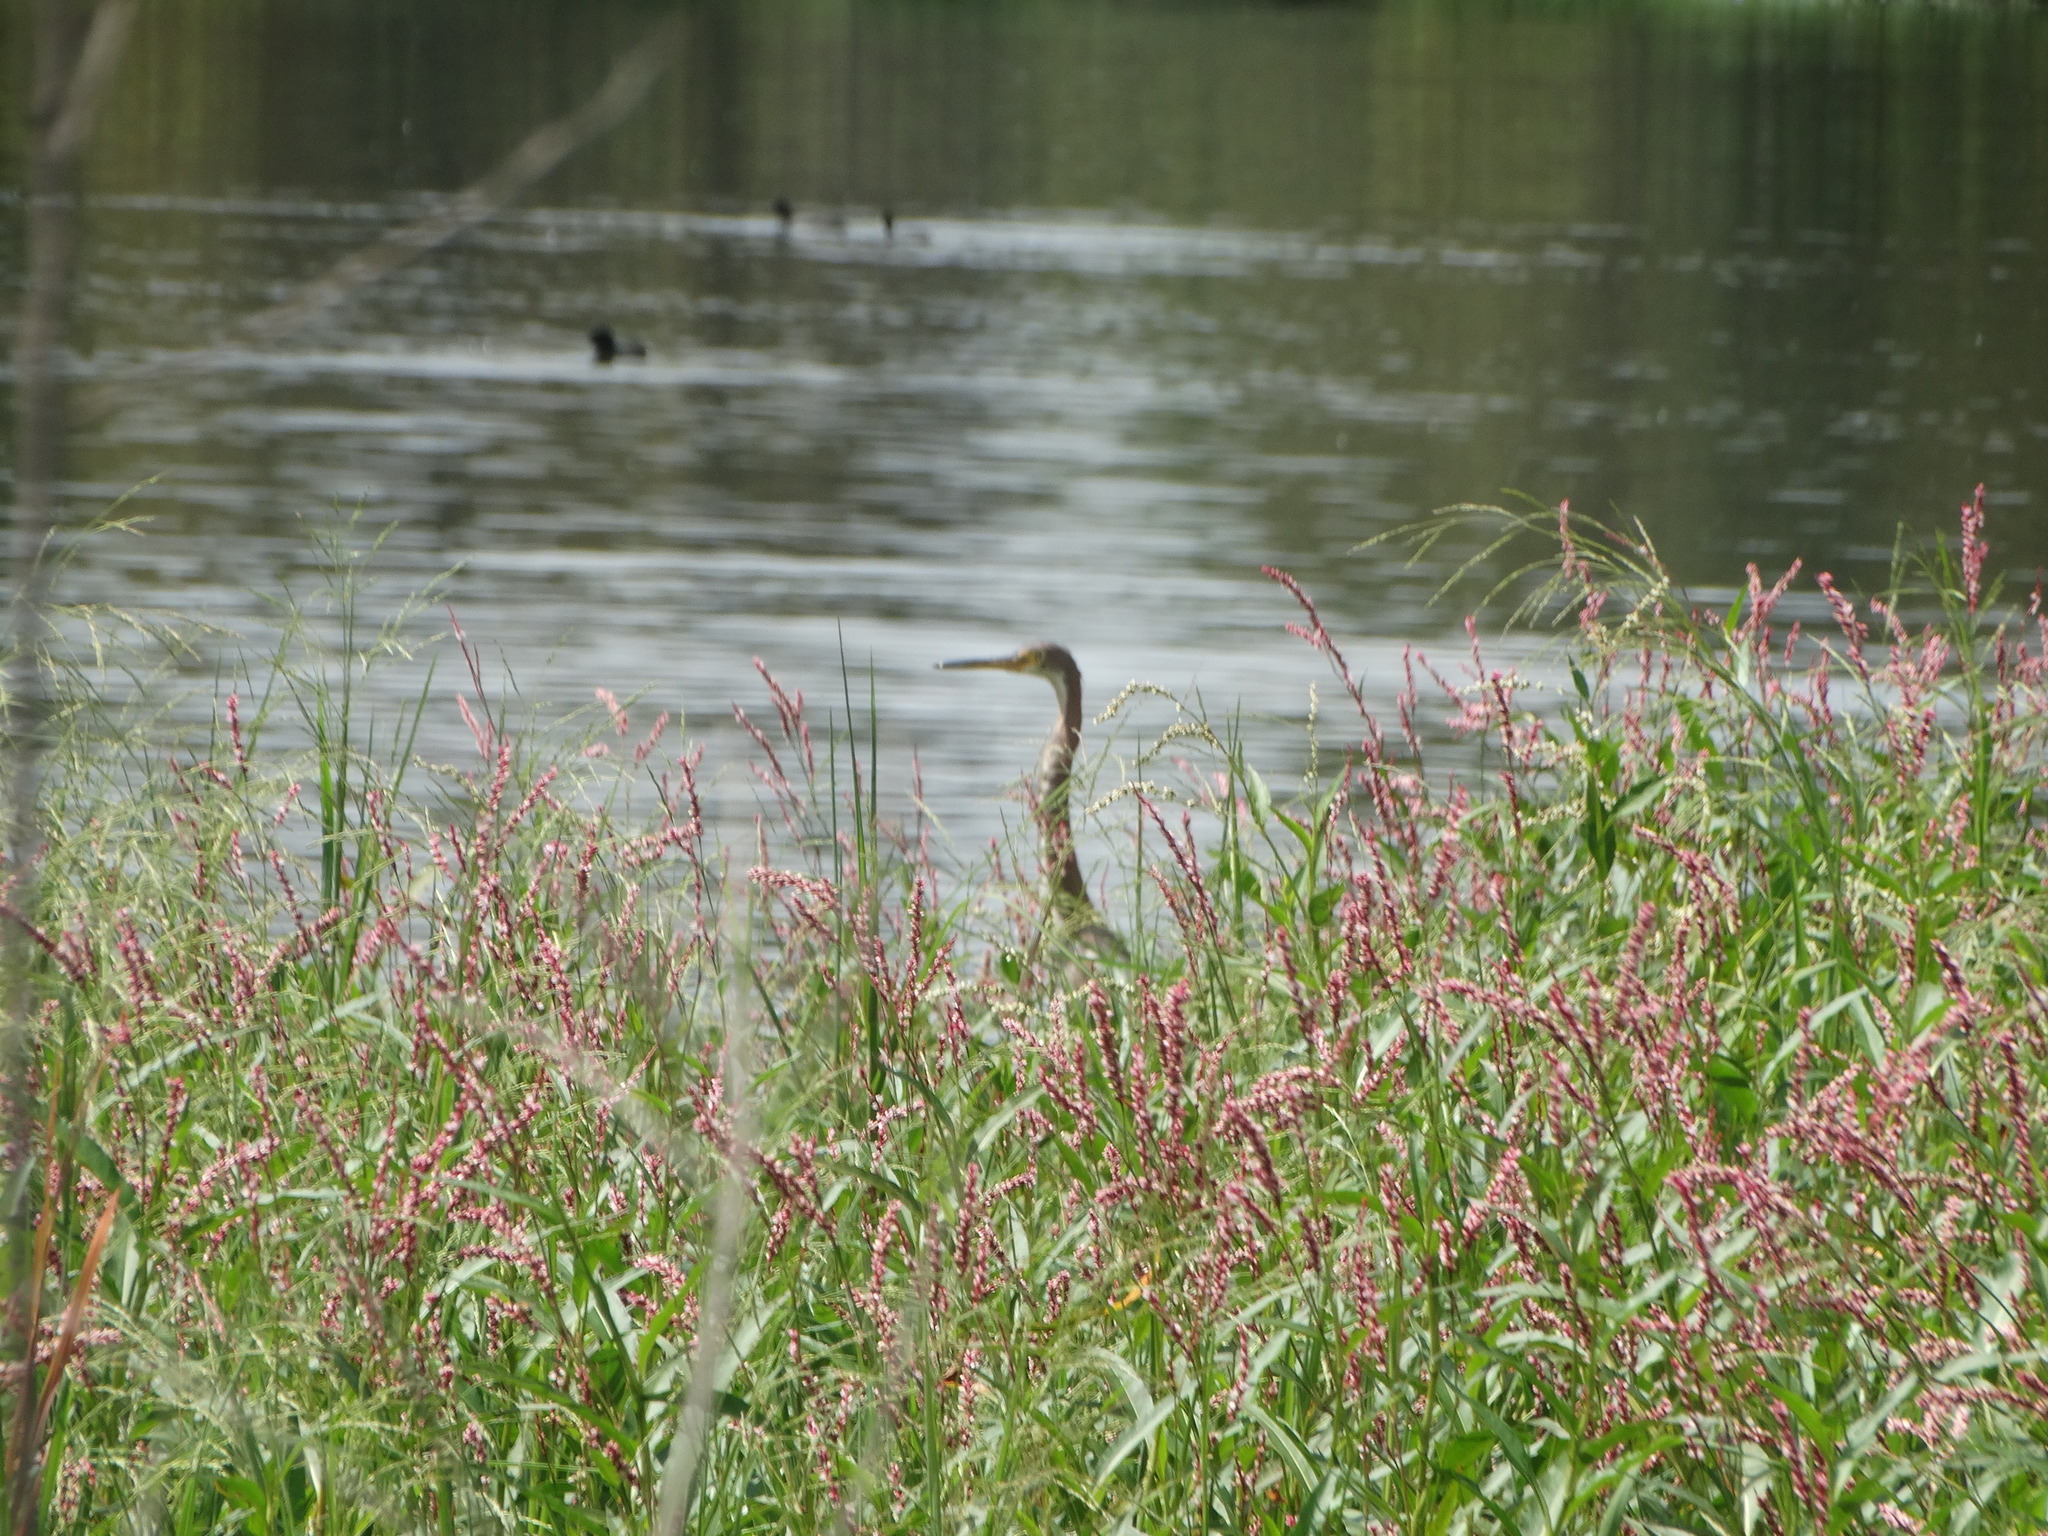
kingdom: Animalia
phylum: Chordata
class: Aves
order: Pelecaniformes
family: Ardeidae
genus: Egretta
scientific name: Egretta tricolor
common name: Tricolored heron
